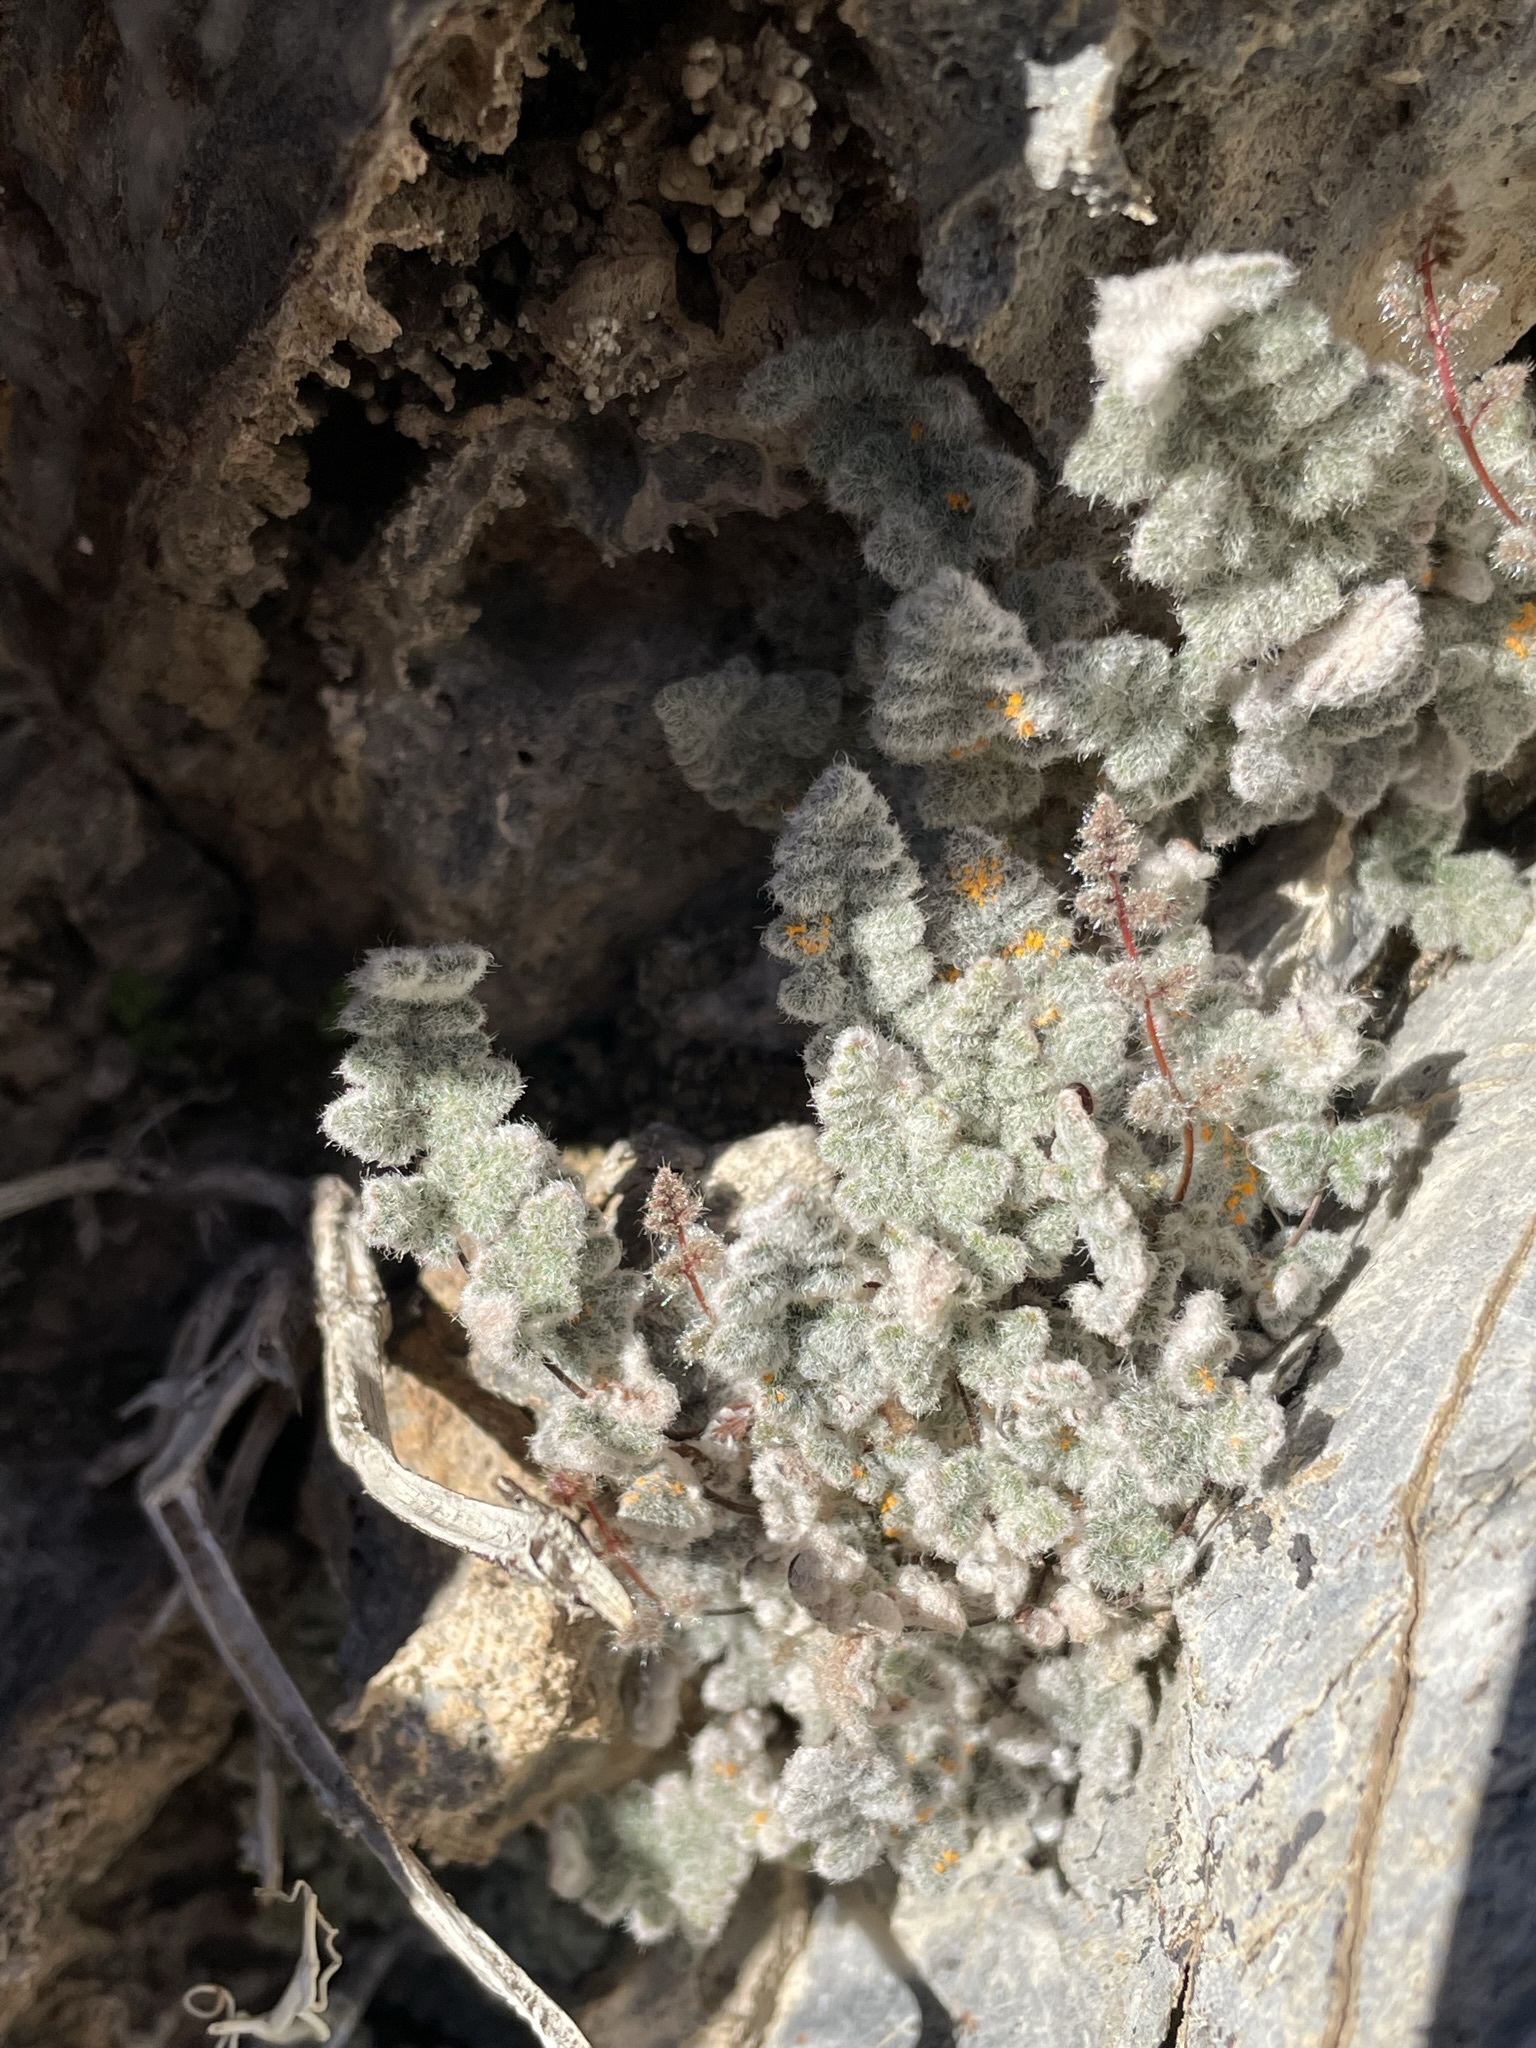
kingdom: Plantae
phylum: Tracheophyta
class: Polypodiopsida
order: Polypodiales
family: Pteridaceae
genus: Myriopteris
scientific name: Myriopteris parryi
